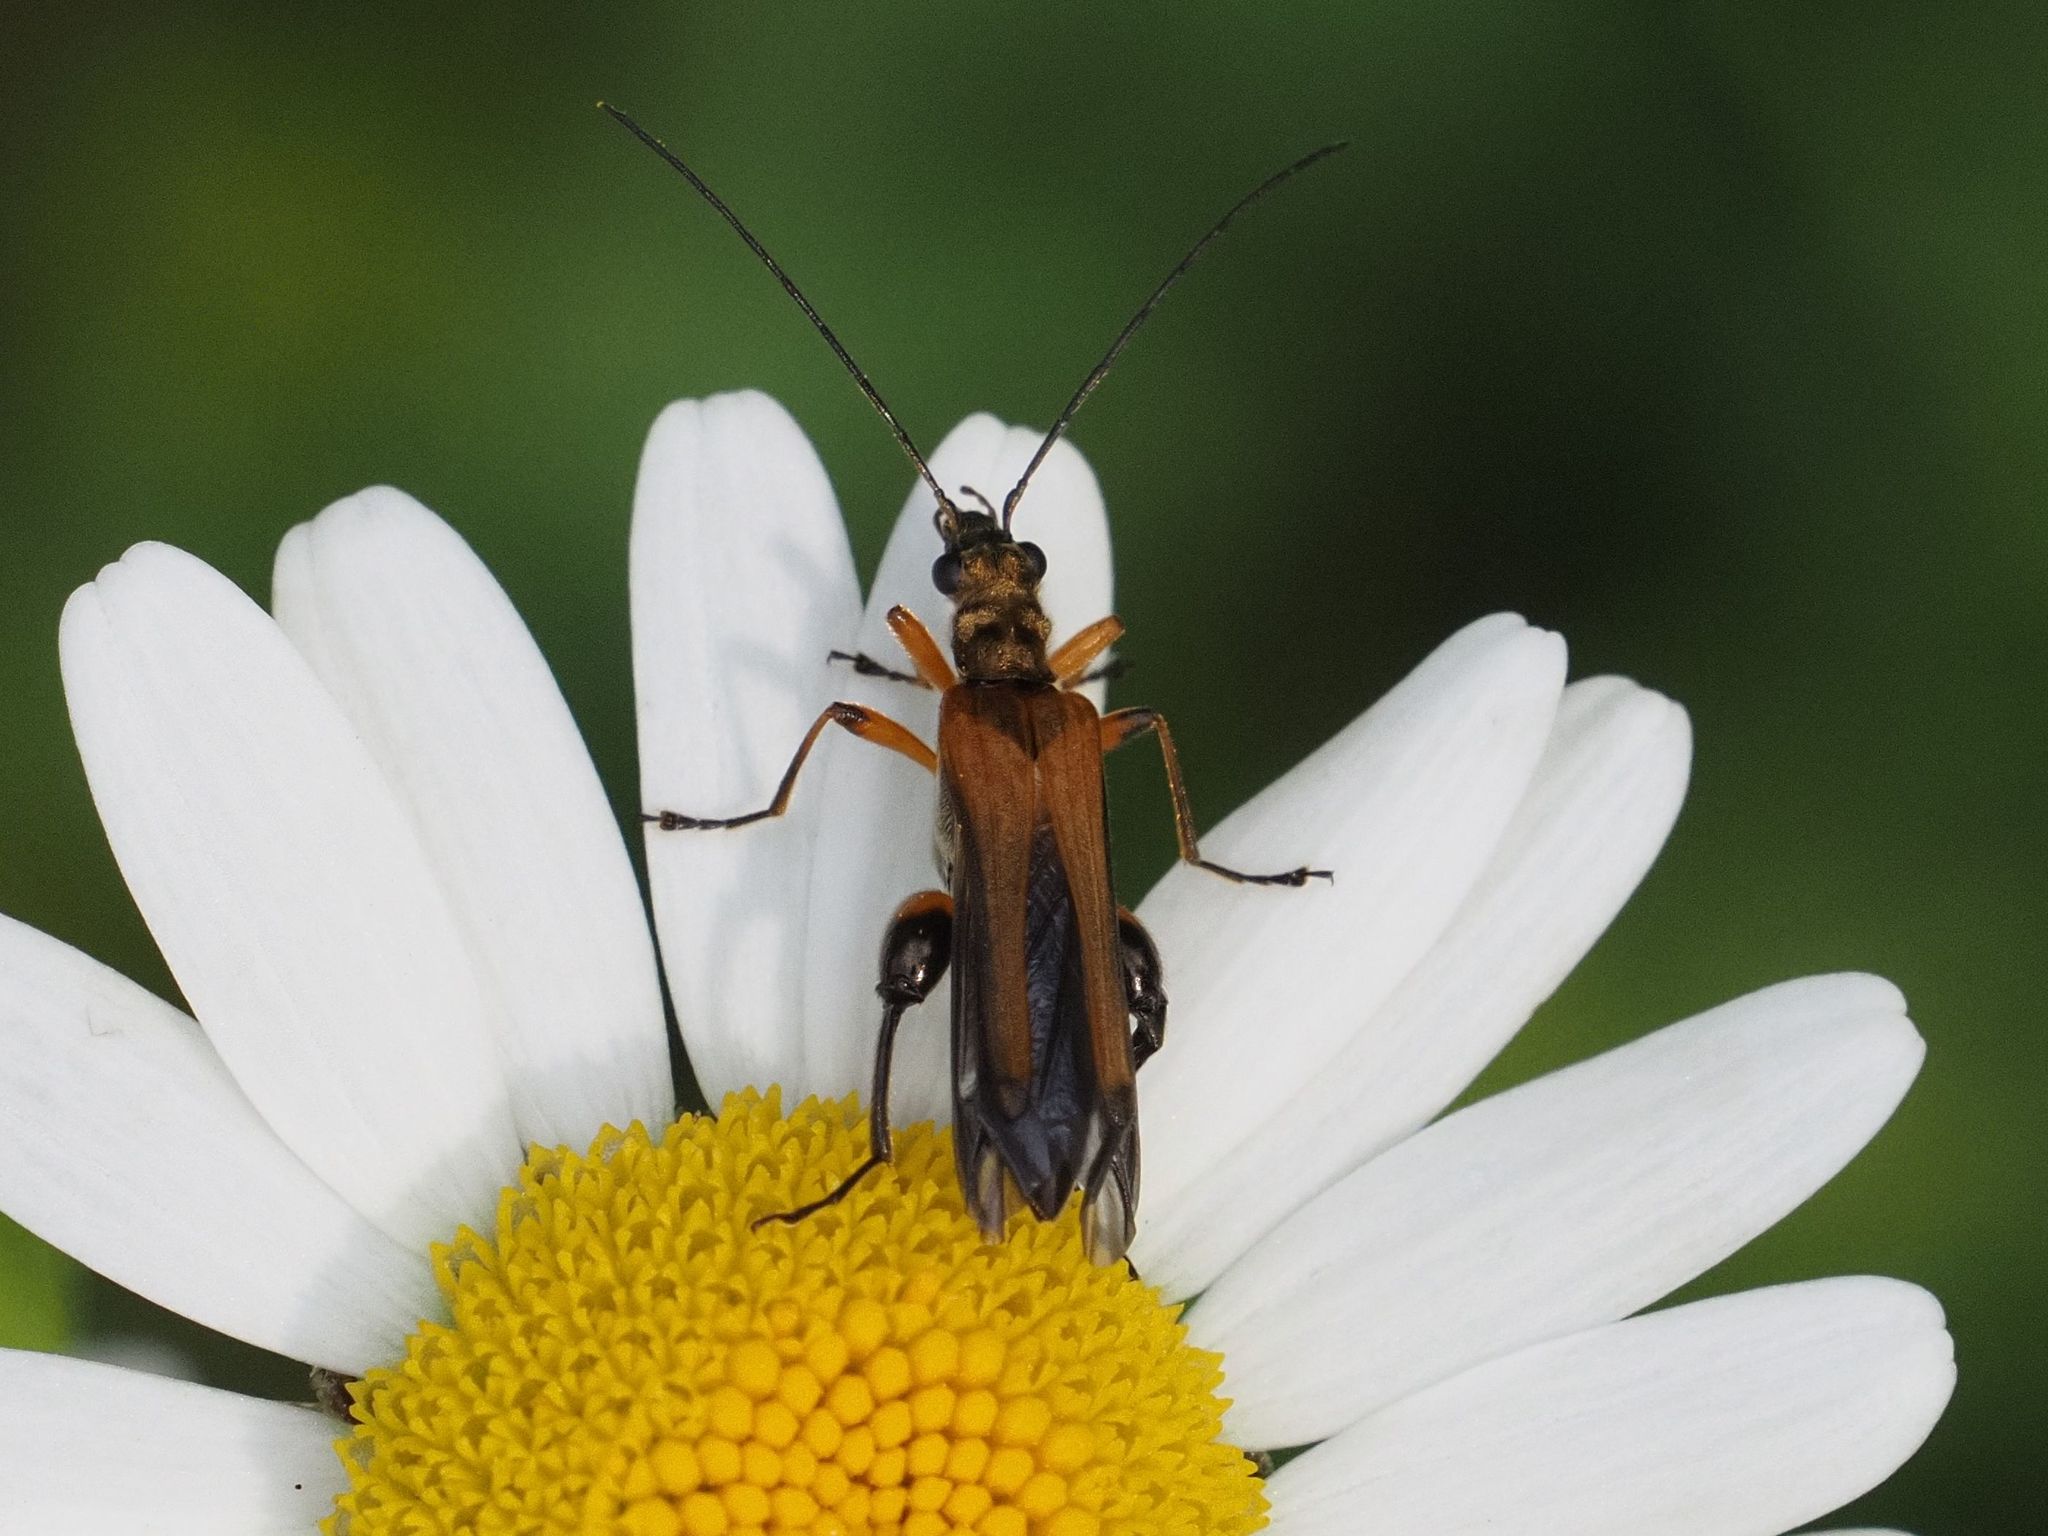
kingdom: Animalia
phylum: Arthropoda
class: Insecta
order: Coleoptera
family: Oedemeridae
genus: Oedemera
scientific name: Oedemera podagrariae
